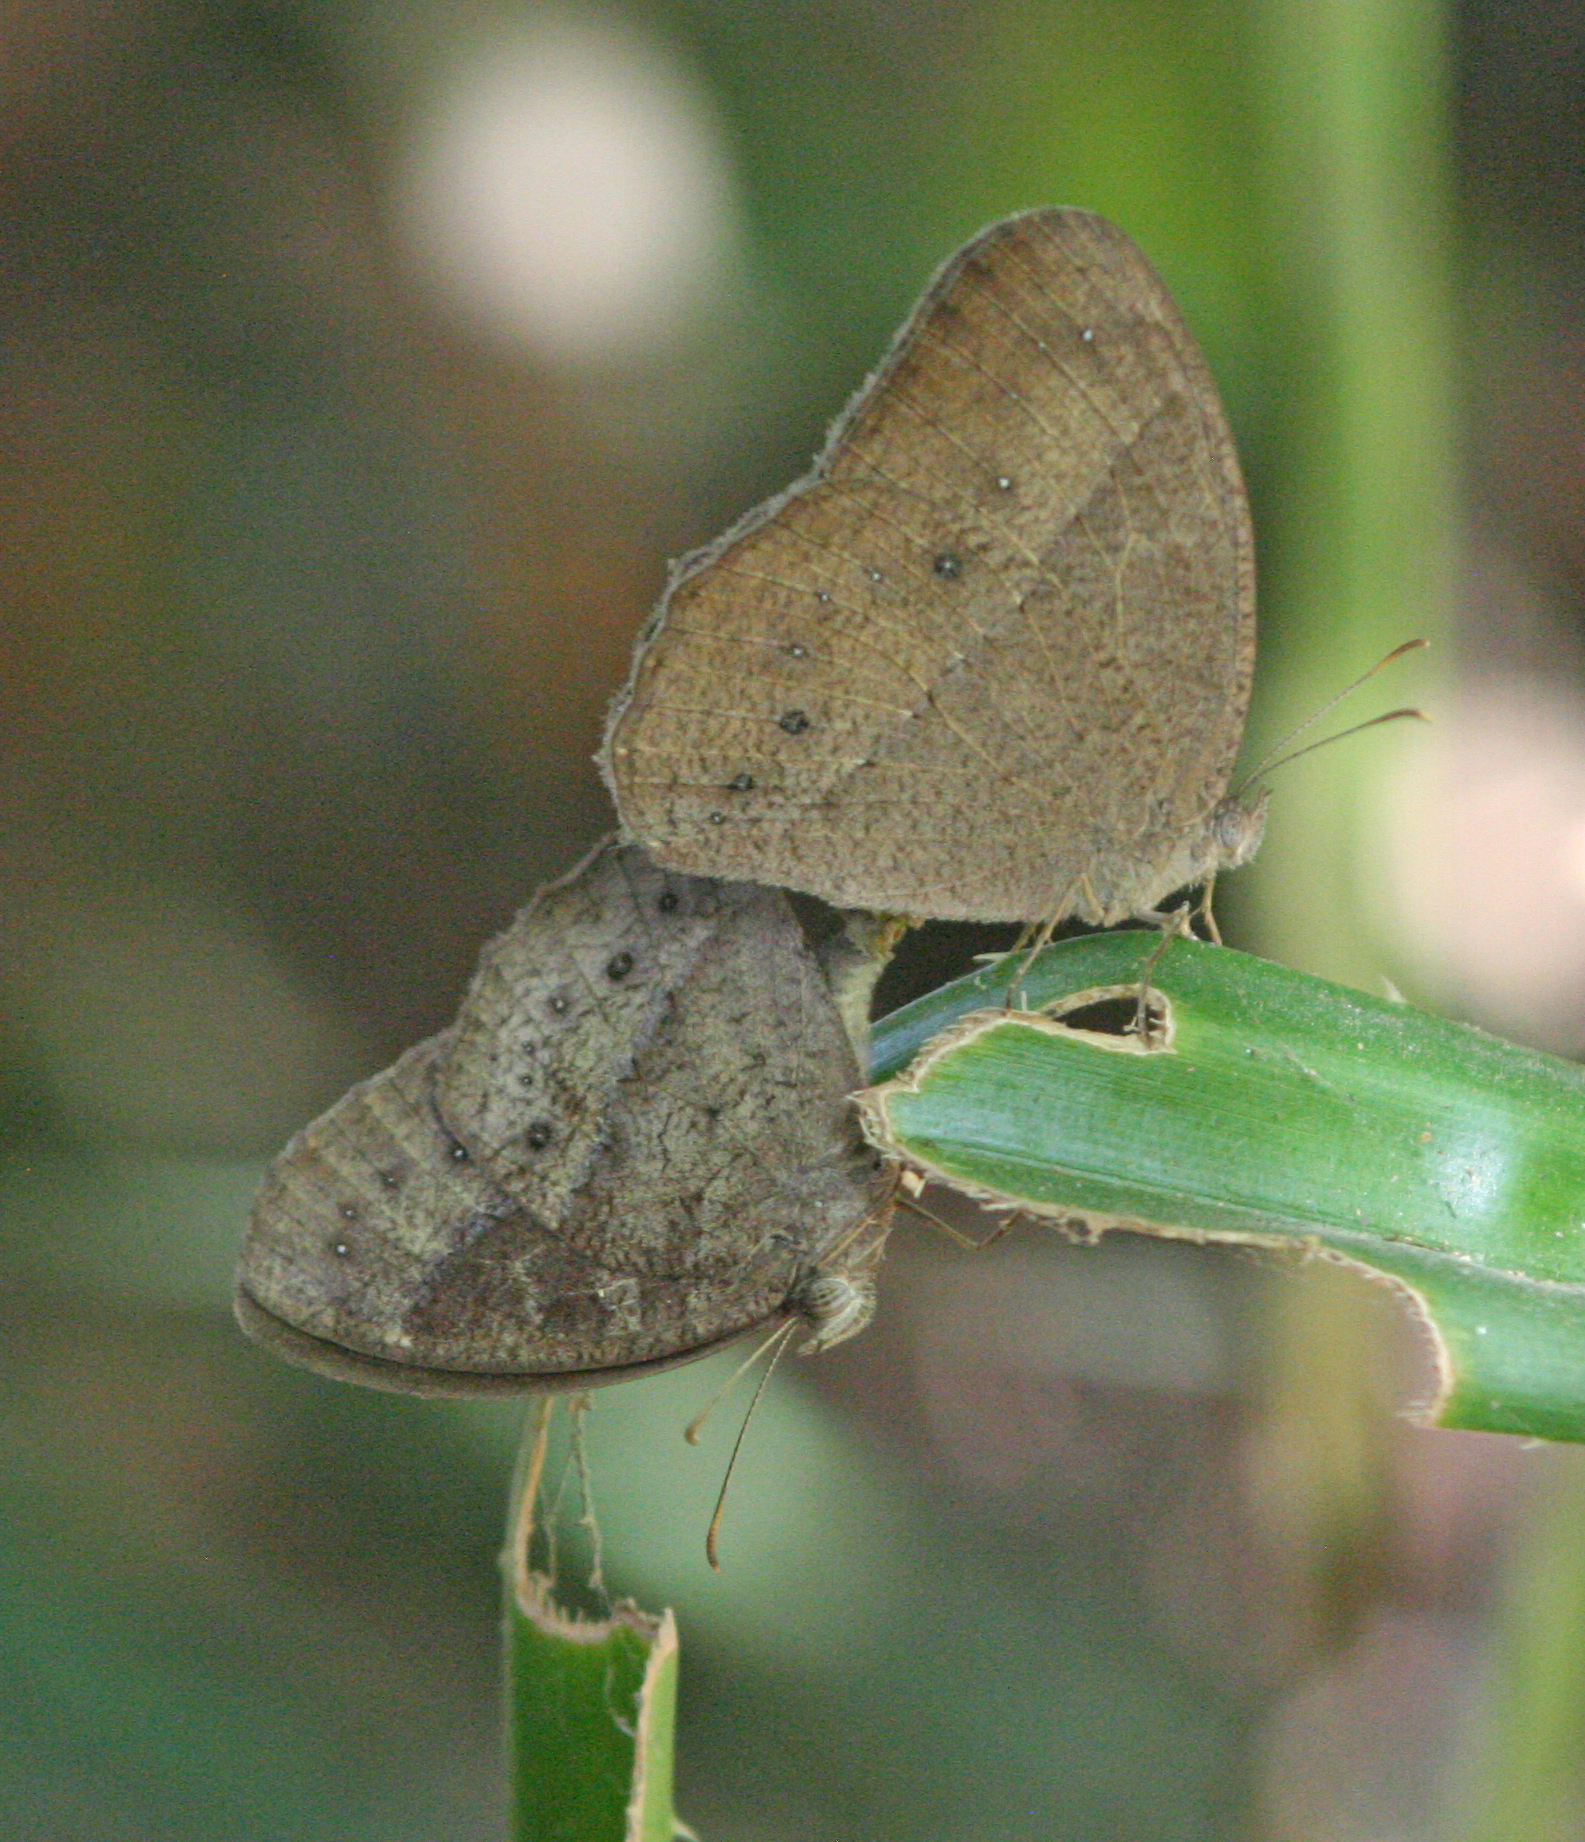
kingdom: Animalia
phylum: Arthropoda
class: Insecta
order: Lepidoptera
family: Nymphalidae
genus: Mycalesis
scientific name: Mycalesis perseus
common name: Dingy bushbrown
